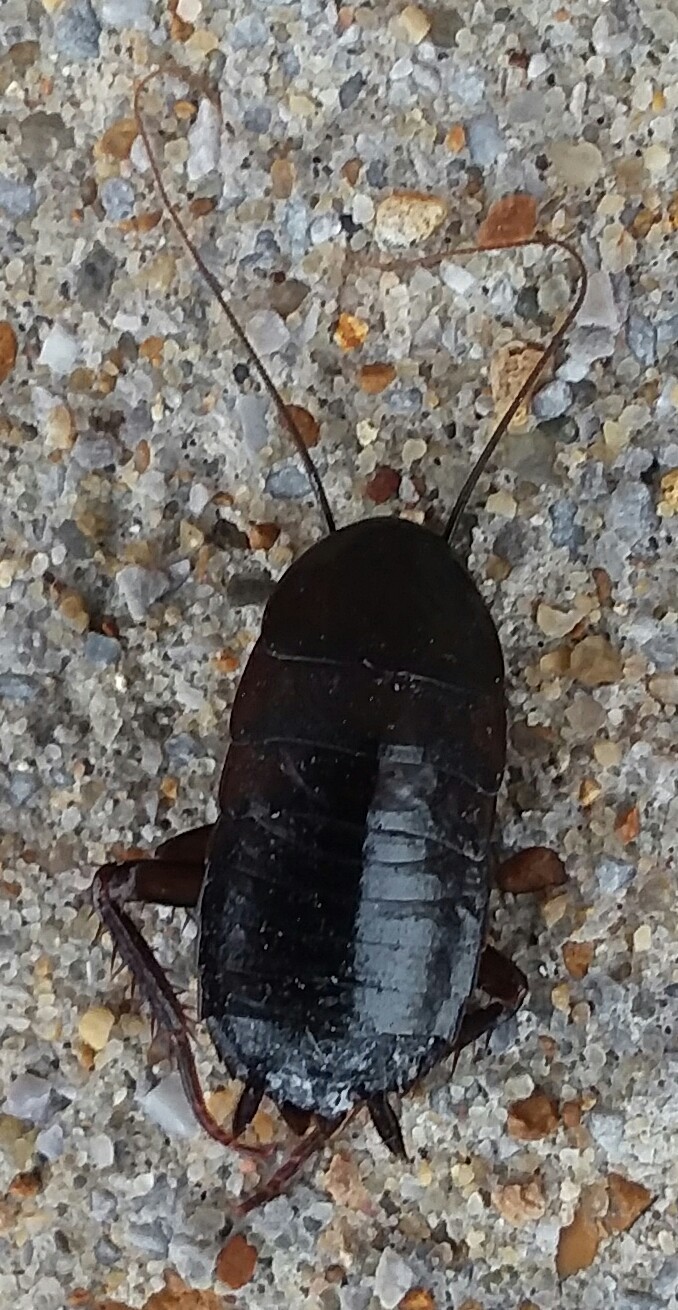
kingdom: Animalia
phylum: Arthropoda
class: Insecta
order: Blattodea
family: Blattidae
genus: Blatta
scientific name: Blatta orientalis
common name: Oriental cockroach
